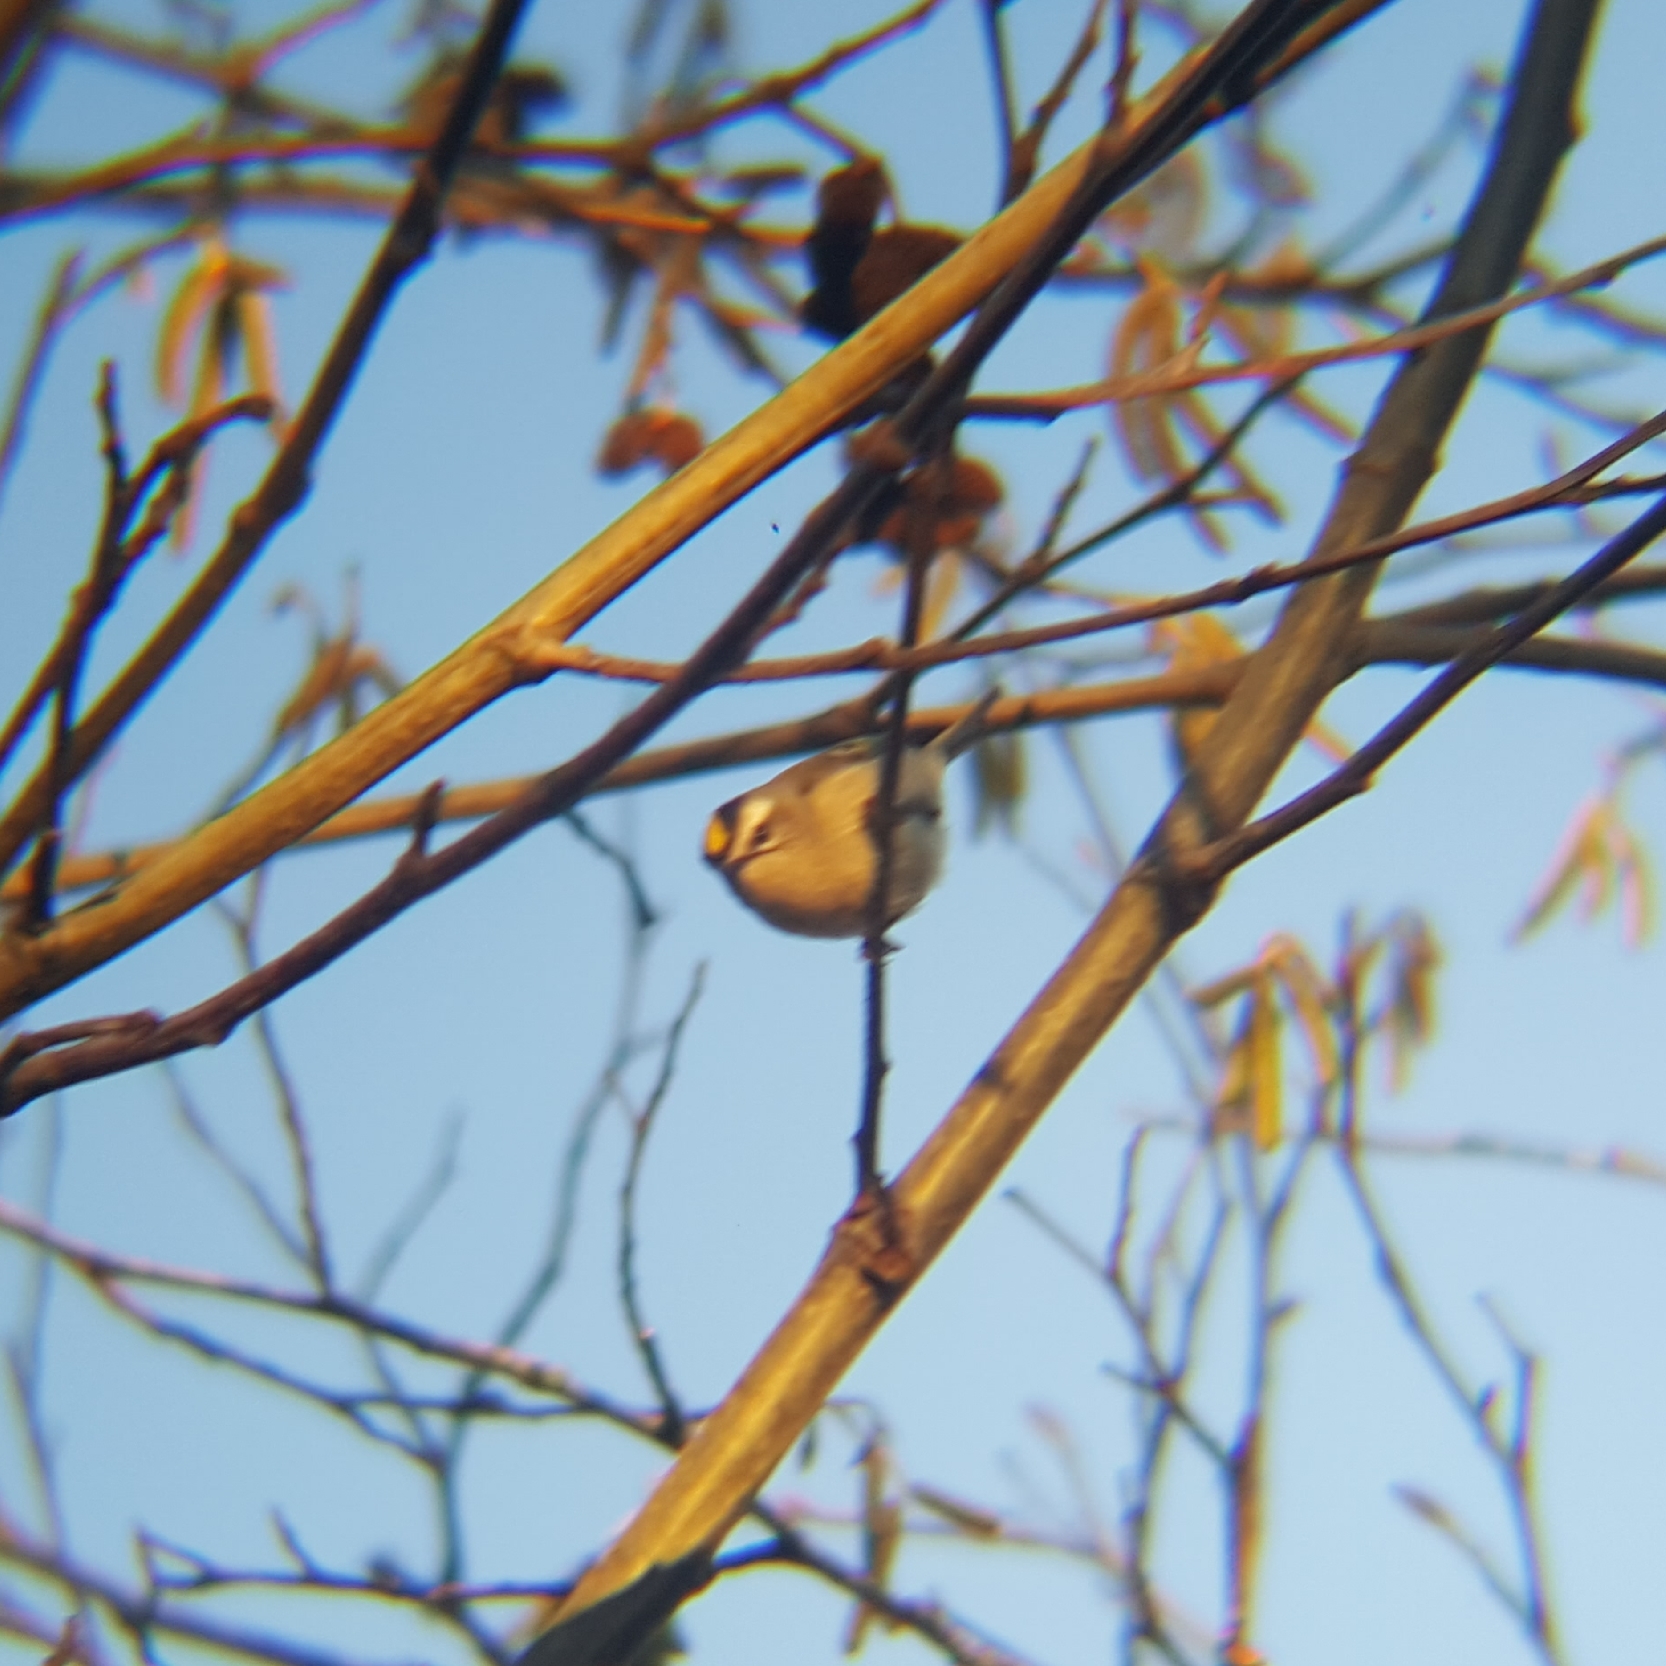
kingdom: Animalia
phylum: Chordata
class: Aves
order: Passeriformes
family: Regulidae
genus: Regulus
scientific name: Regulus satrapa
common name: Golden-crowned kinglet
